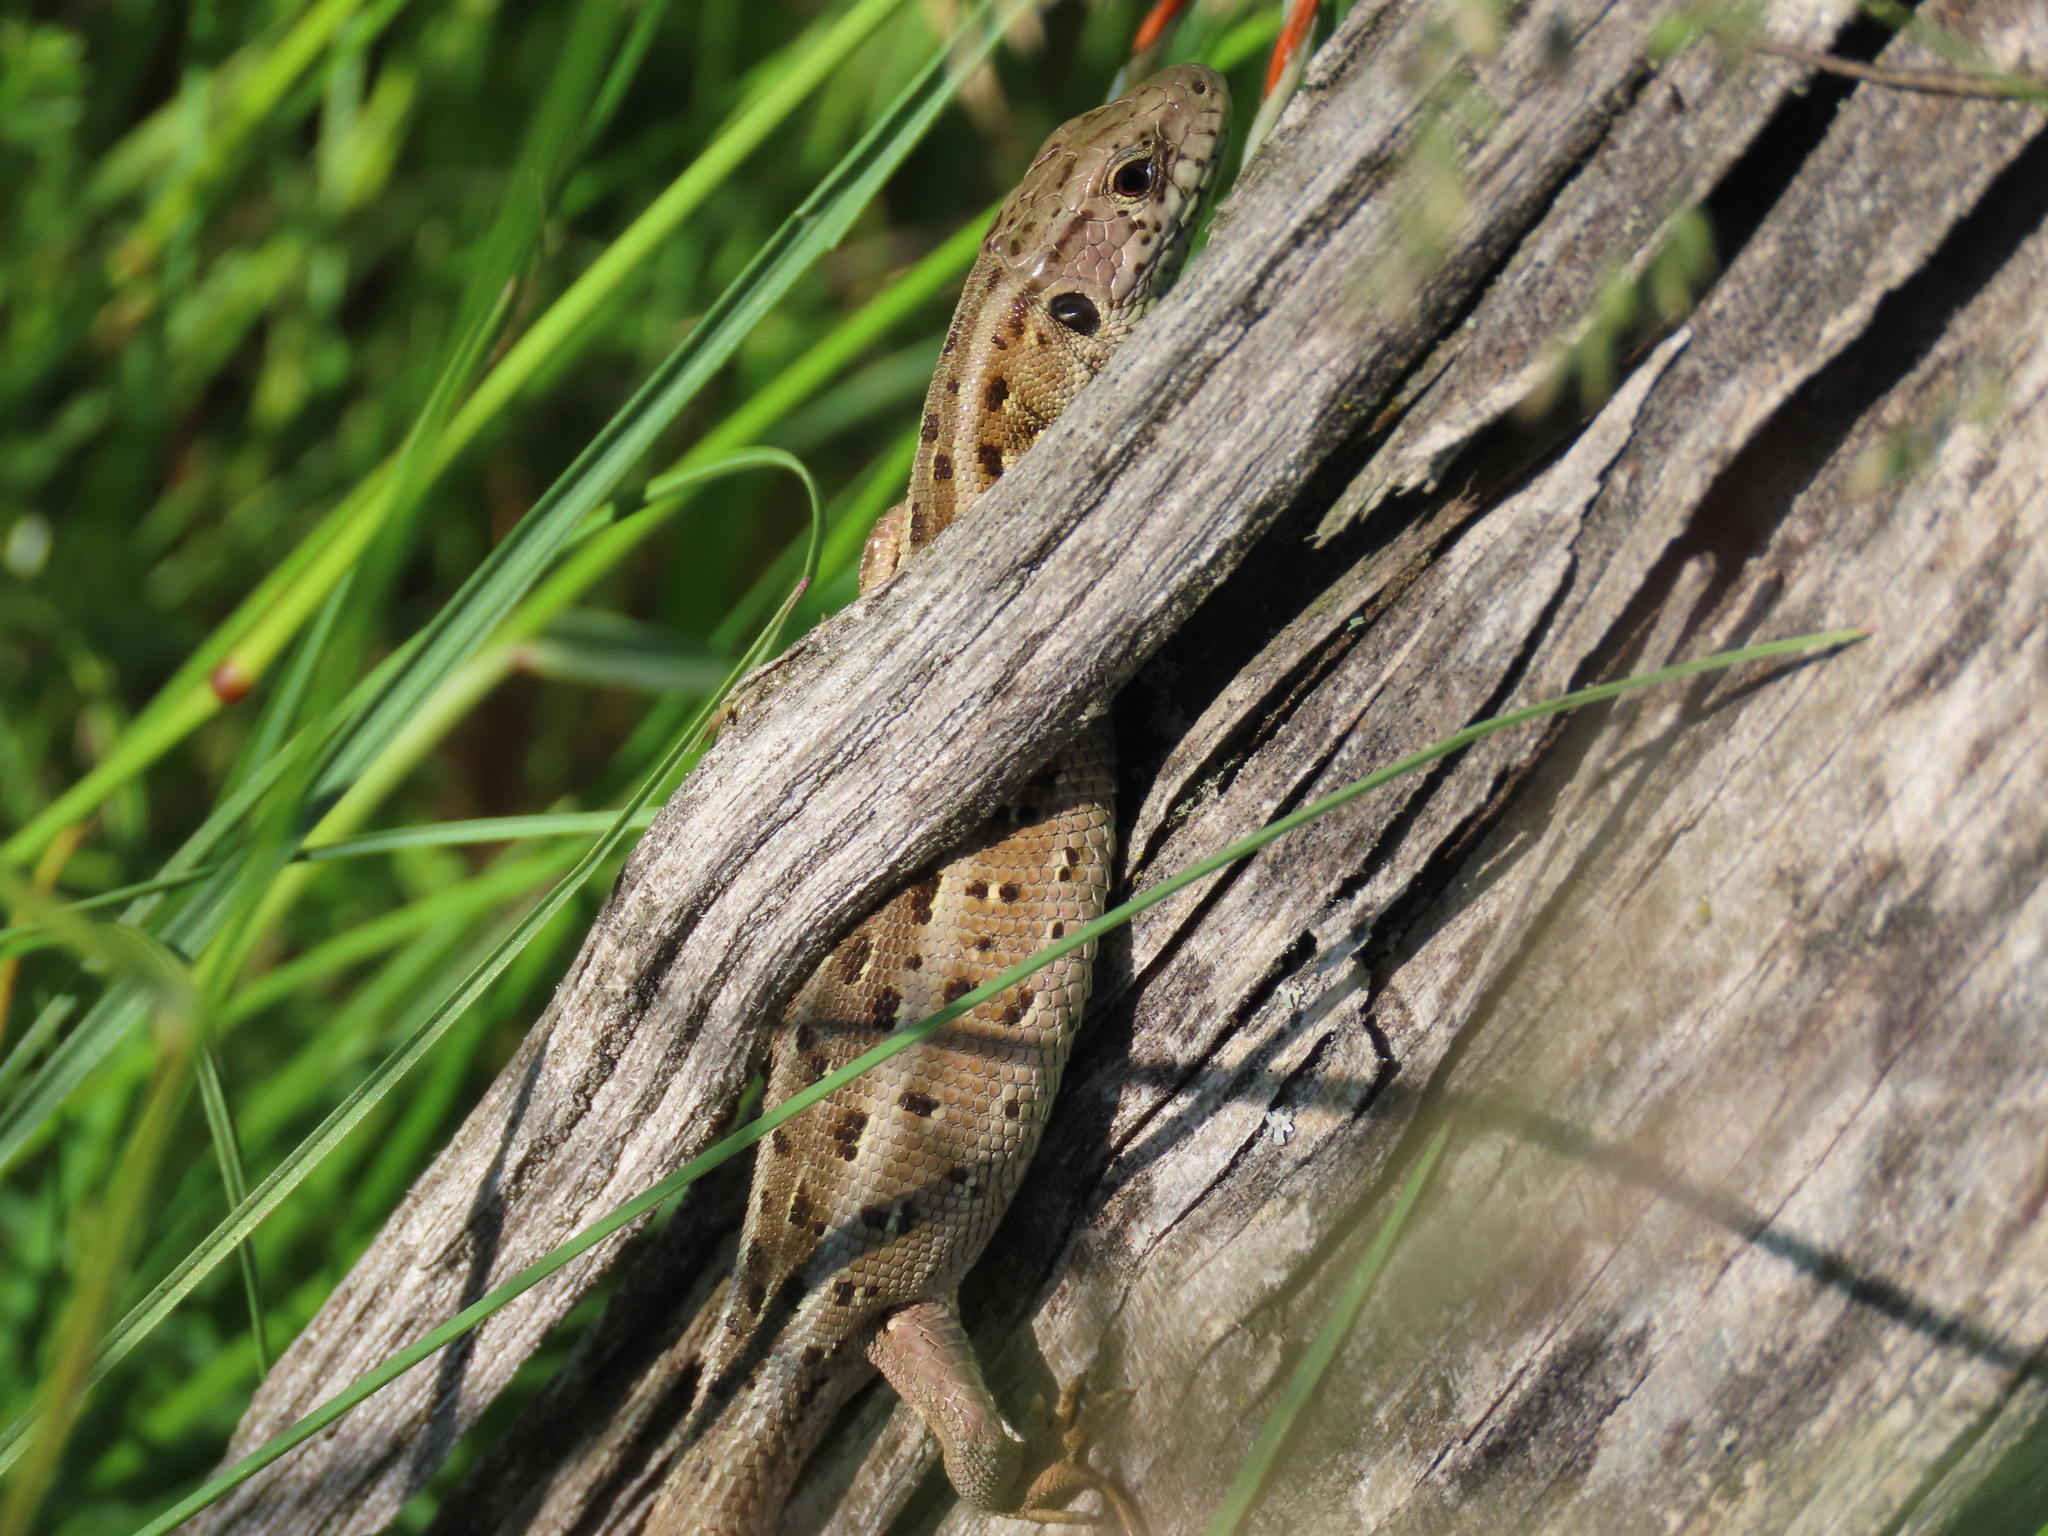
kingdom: Animalia
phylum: Chordata
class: Squamata
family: Lacertidae
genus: Lacerta
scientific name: Lacerta agilis
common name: Sand lizard
